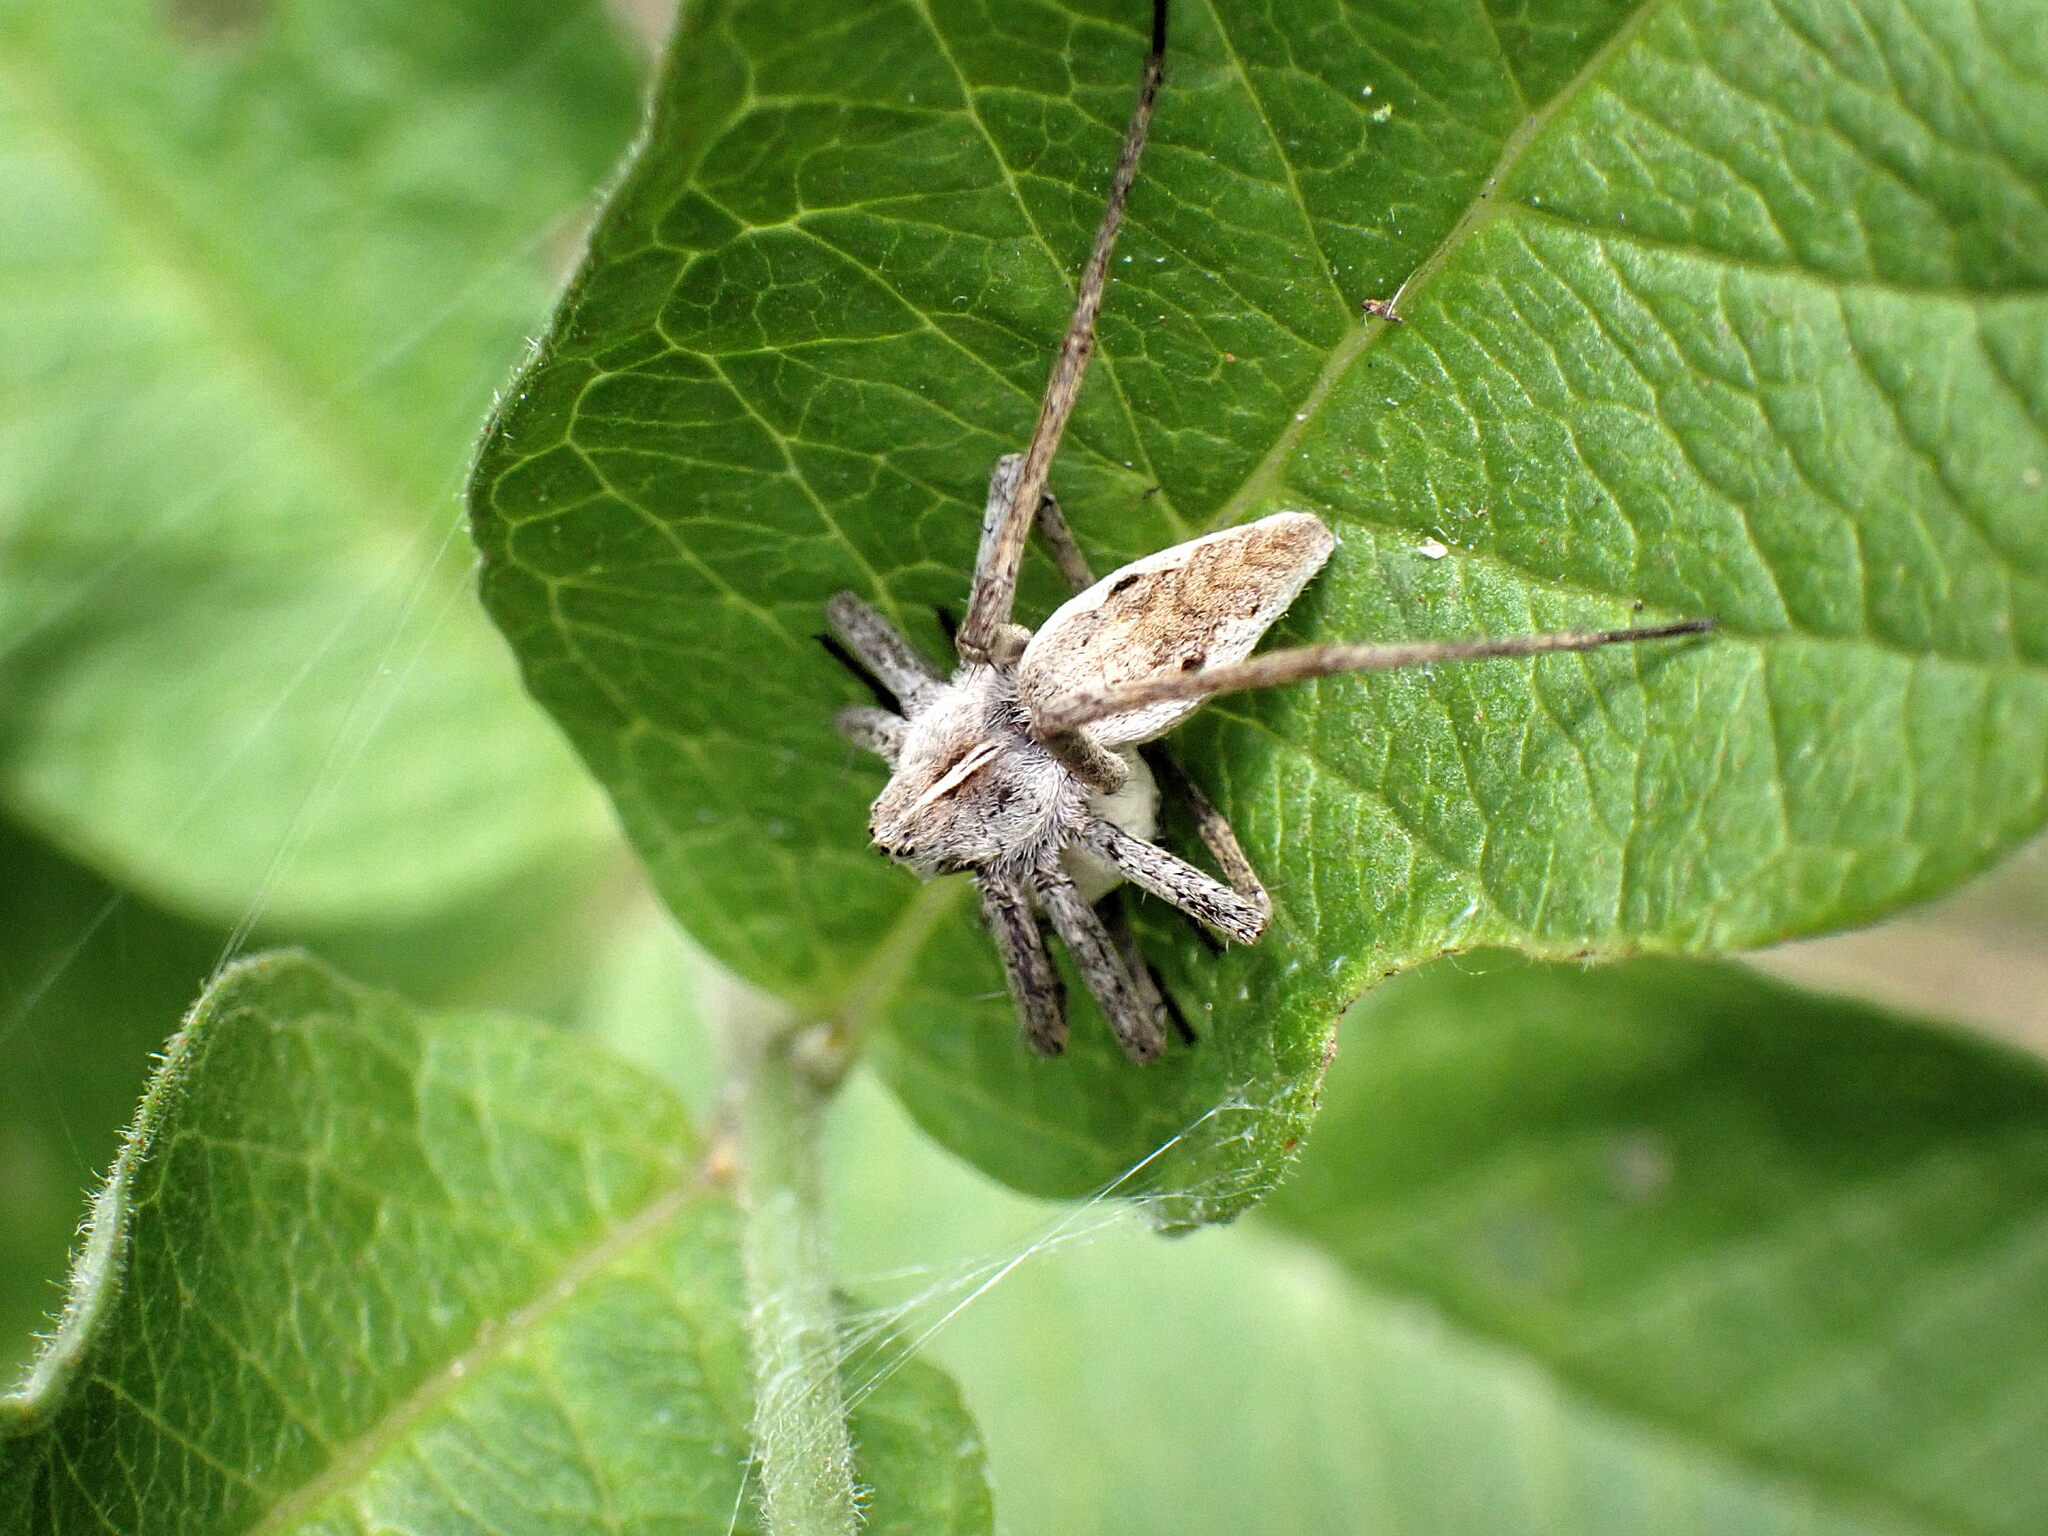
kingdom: Animalia
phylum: Arthropoda
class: Arachnida
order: Araneae
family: Pisauridae
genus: Pisaura
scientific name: Pisaura mirabilis
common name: Tent spider
